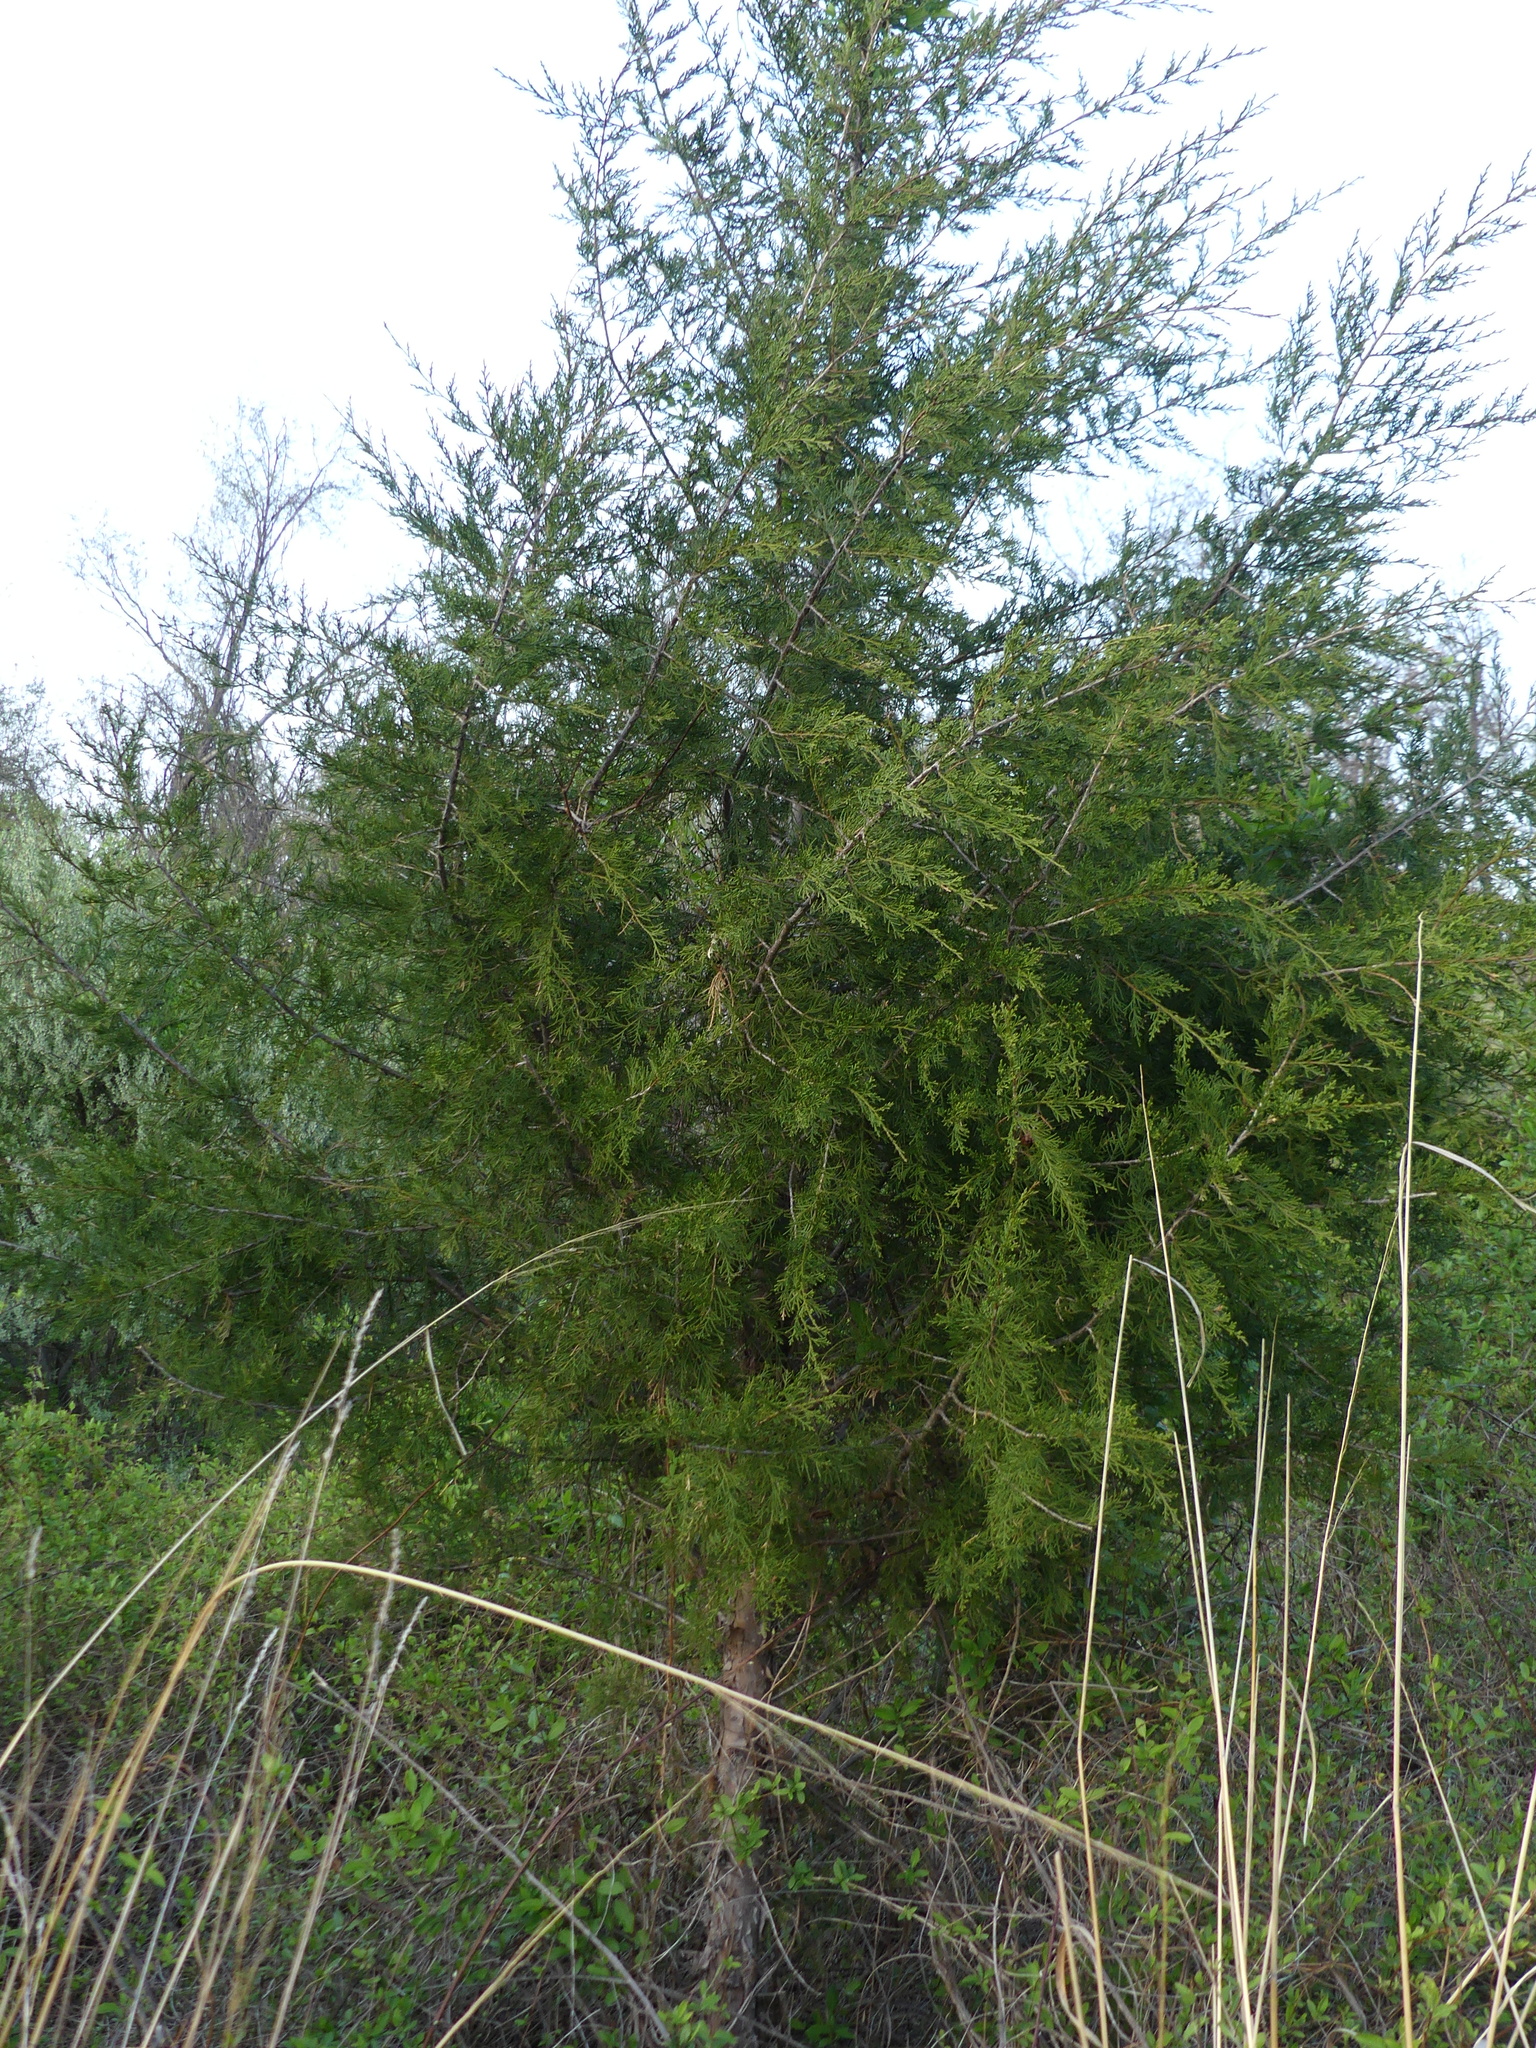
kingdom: Plantae
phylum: Tracheophyta
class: Pinopsida
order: Pinales
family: Cupressaceae
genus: Juniperus
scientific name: Juniperus virginiana
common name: Red juniper
